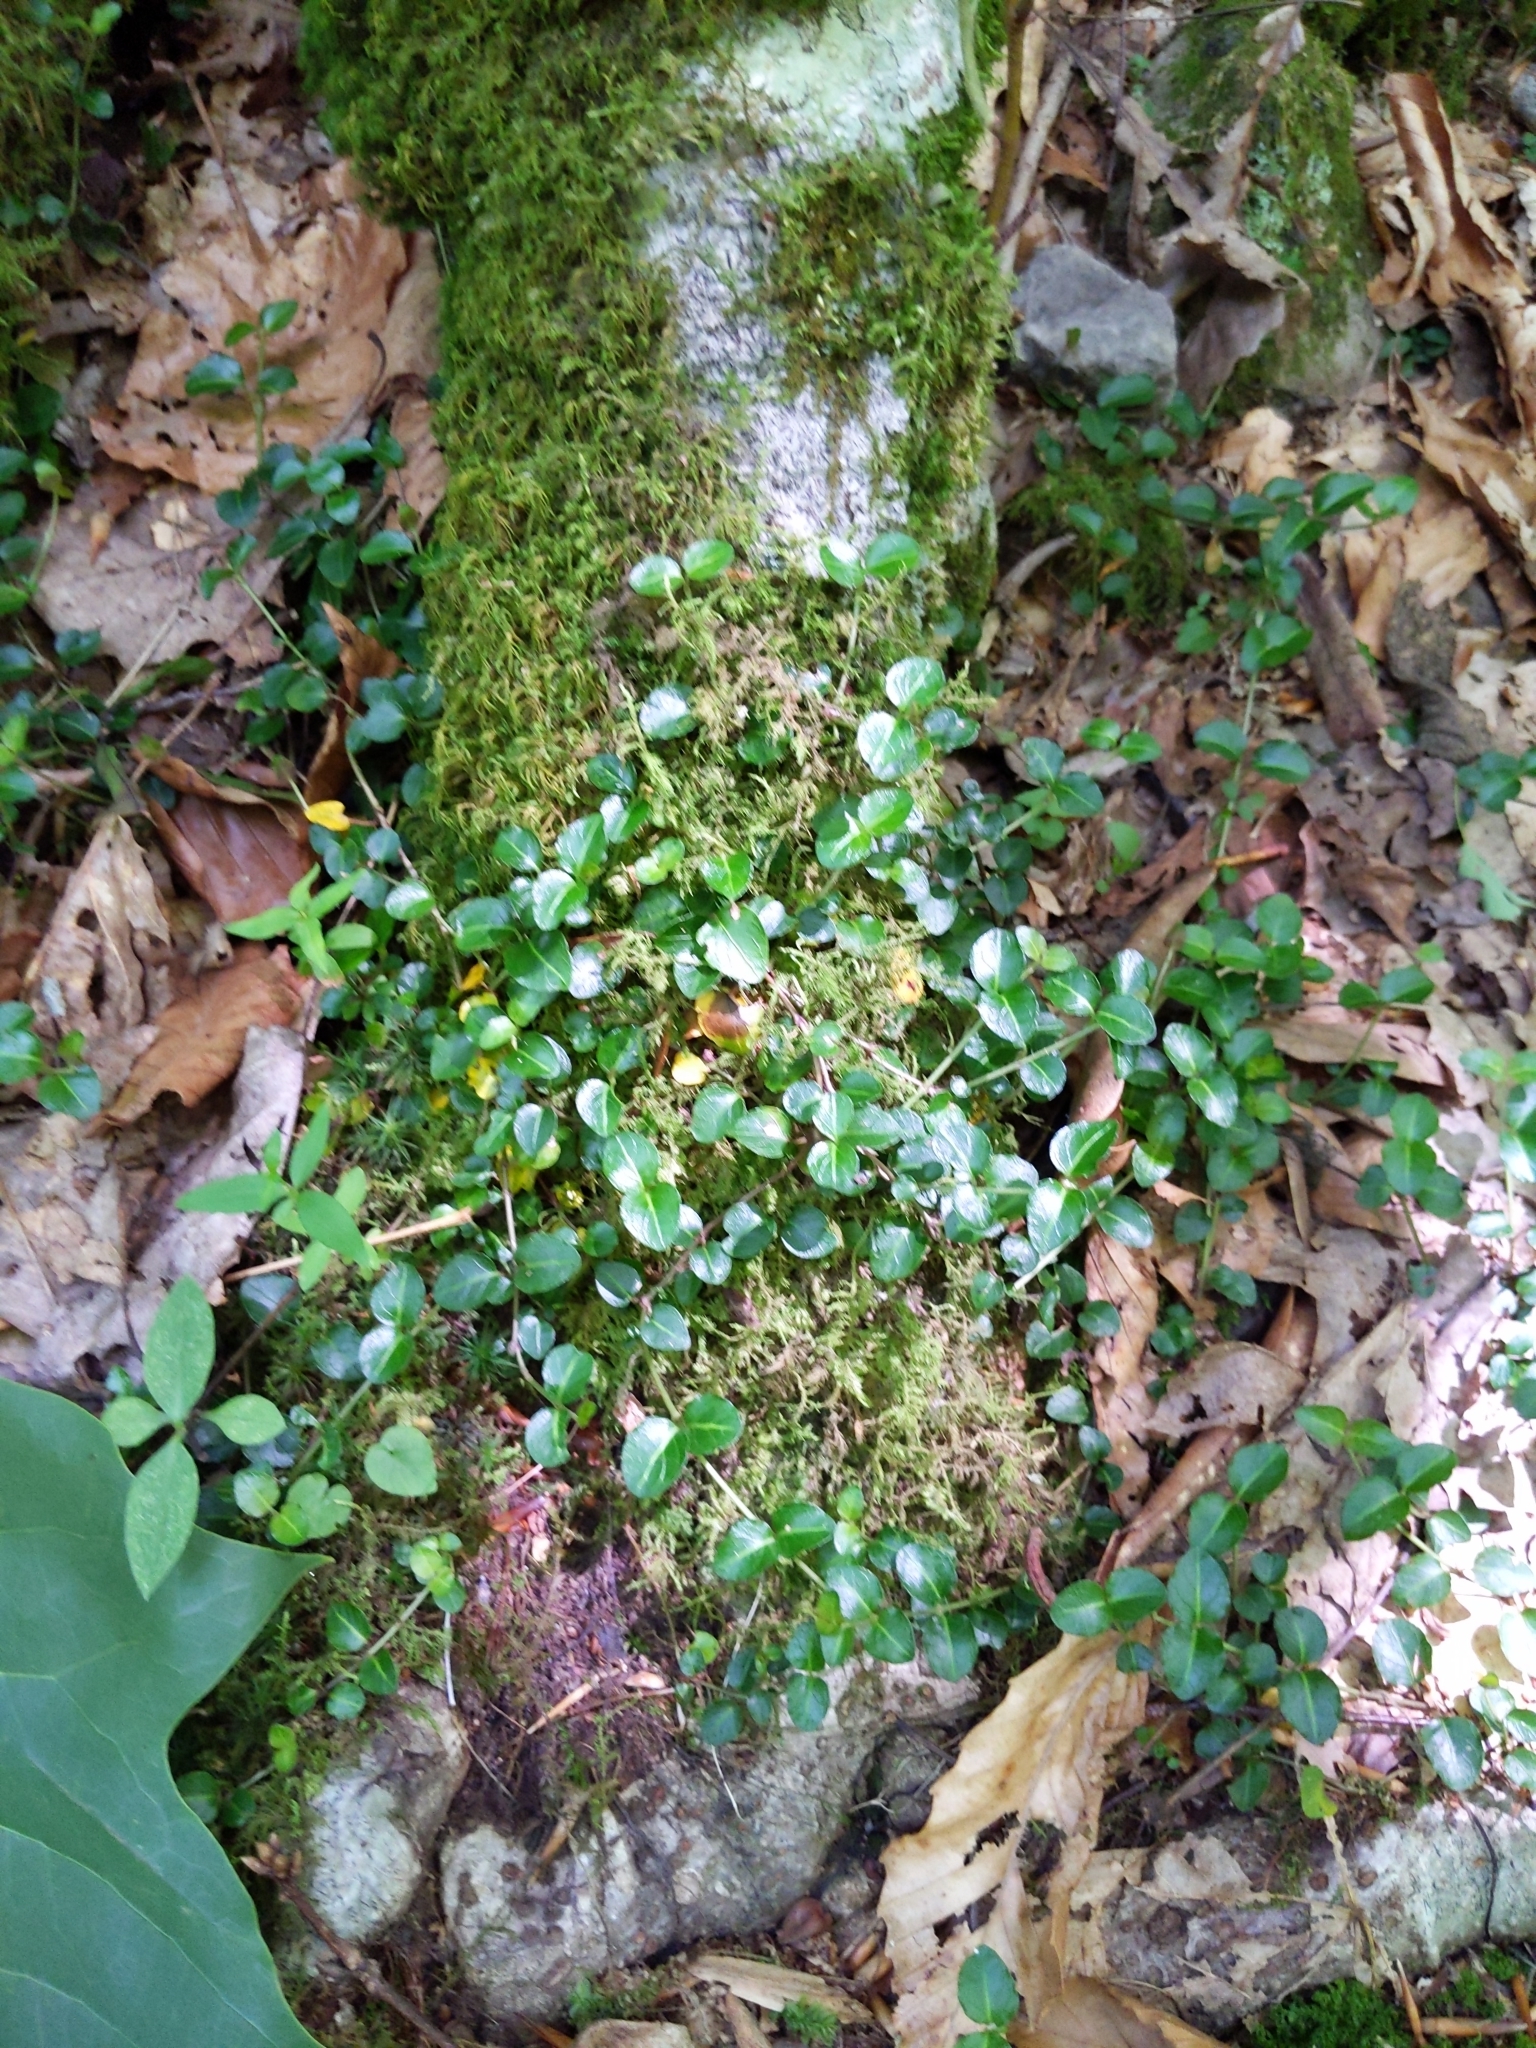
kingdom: Plantae
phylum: Tracheophyta
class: Magnoliopsida
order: Gentianales
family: Rubiaceae
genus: Mitchella
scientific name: Mitchella repens
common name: Partridge-berry
